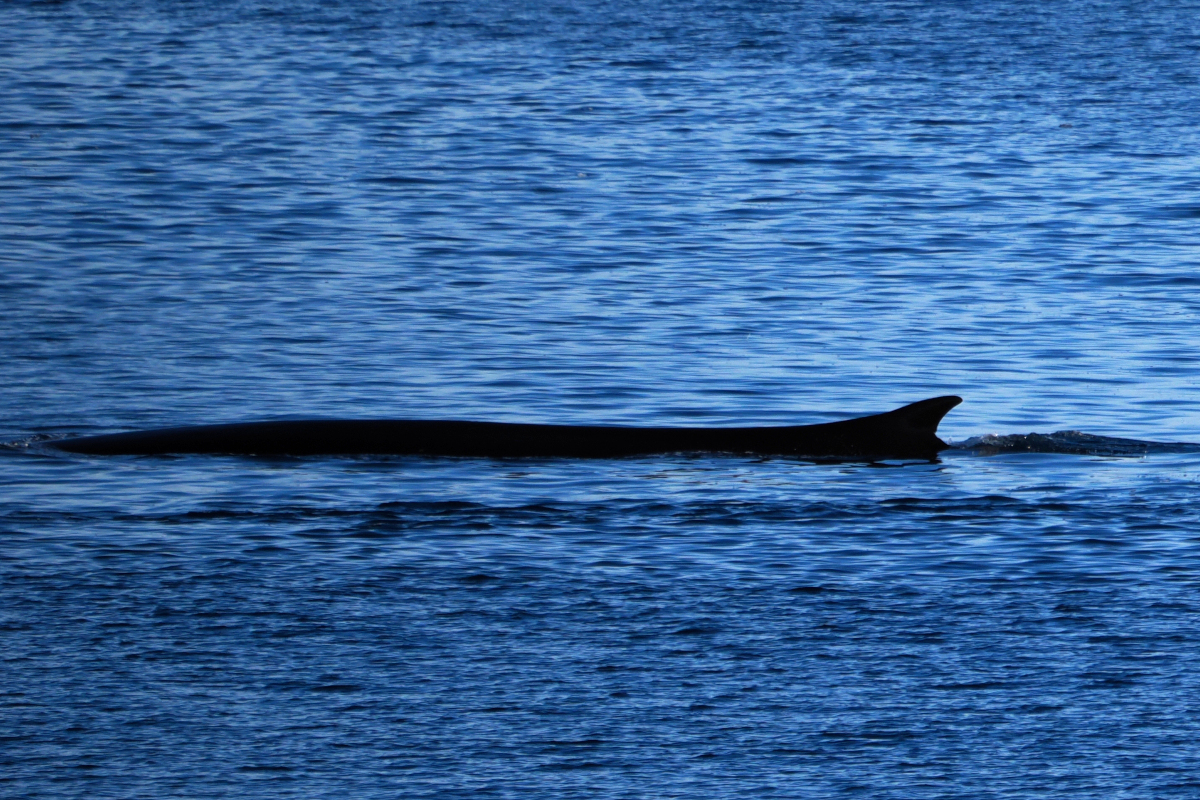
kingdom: Animalia
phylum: Chordata
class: Mammalia
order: Cetacea
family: Balaenopteridae
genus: Balaenoptera
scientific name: Balaenoptera physalus
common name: Fin whale
